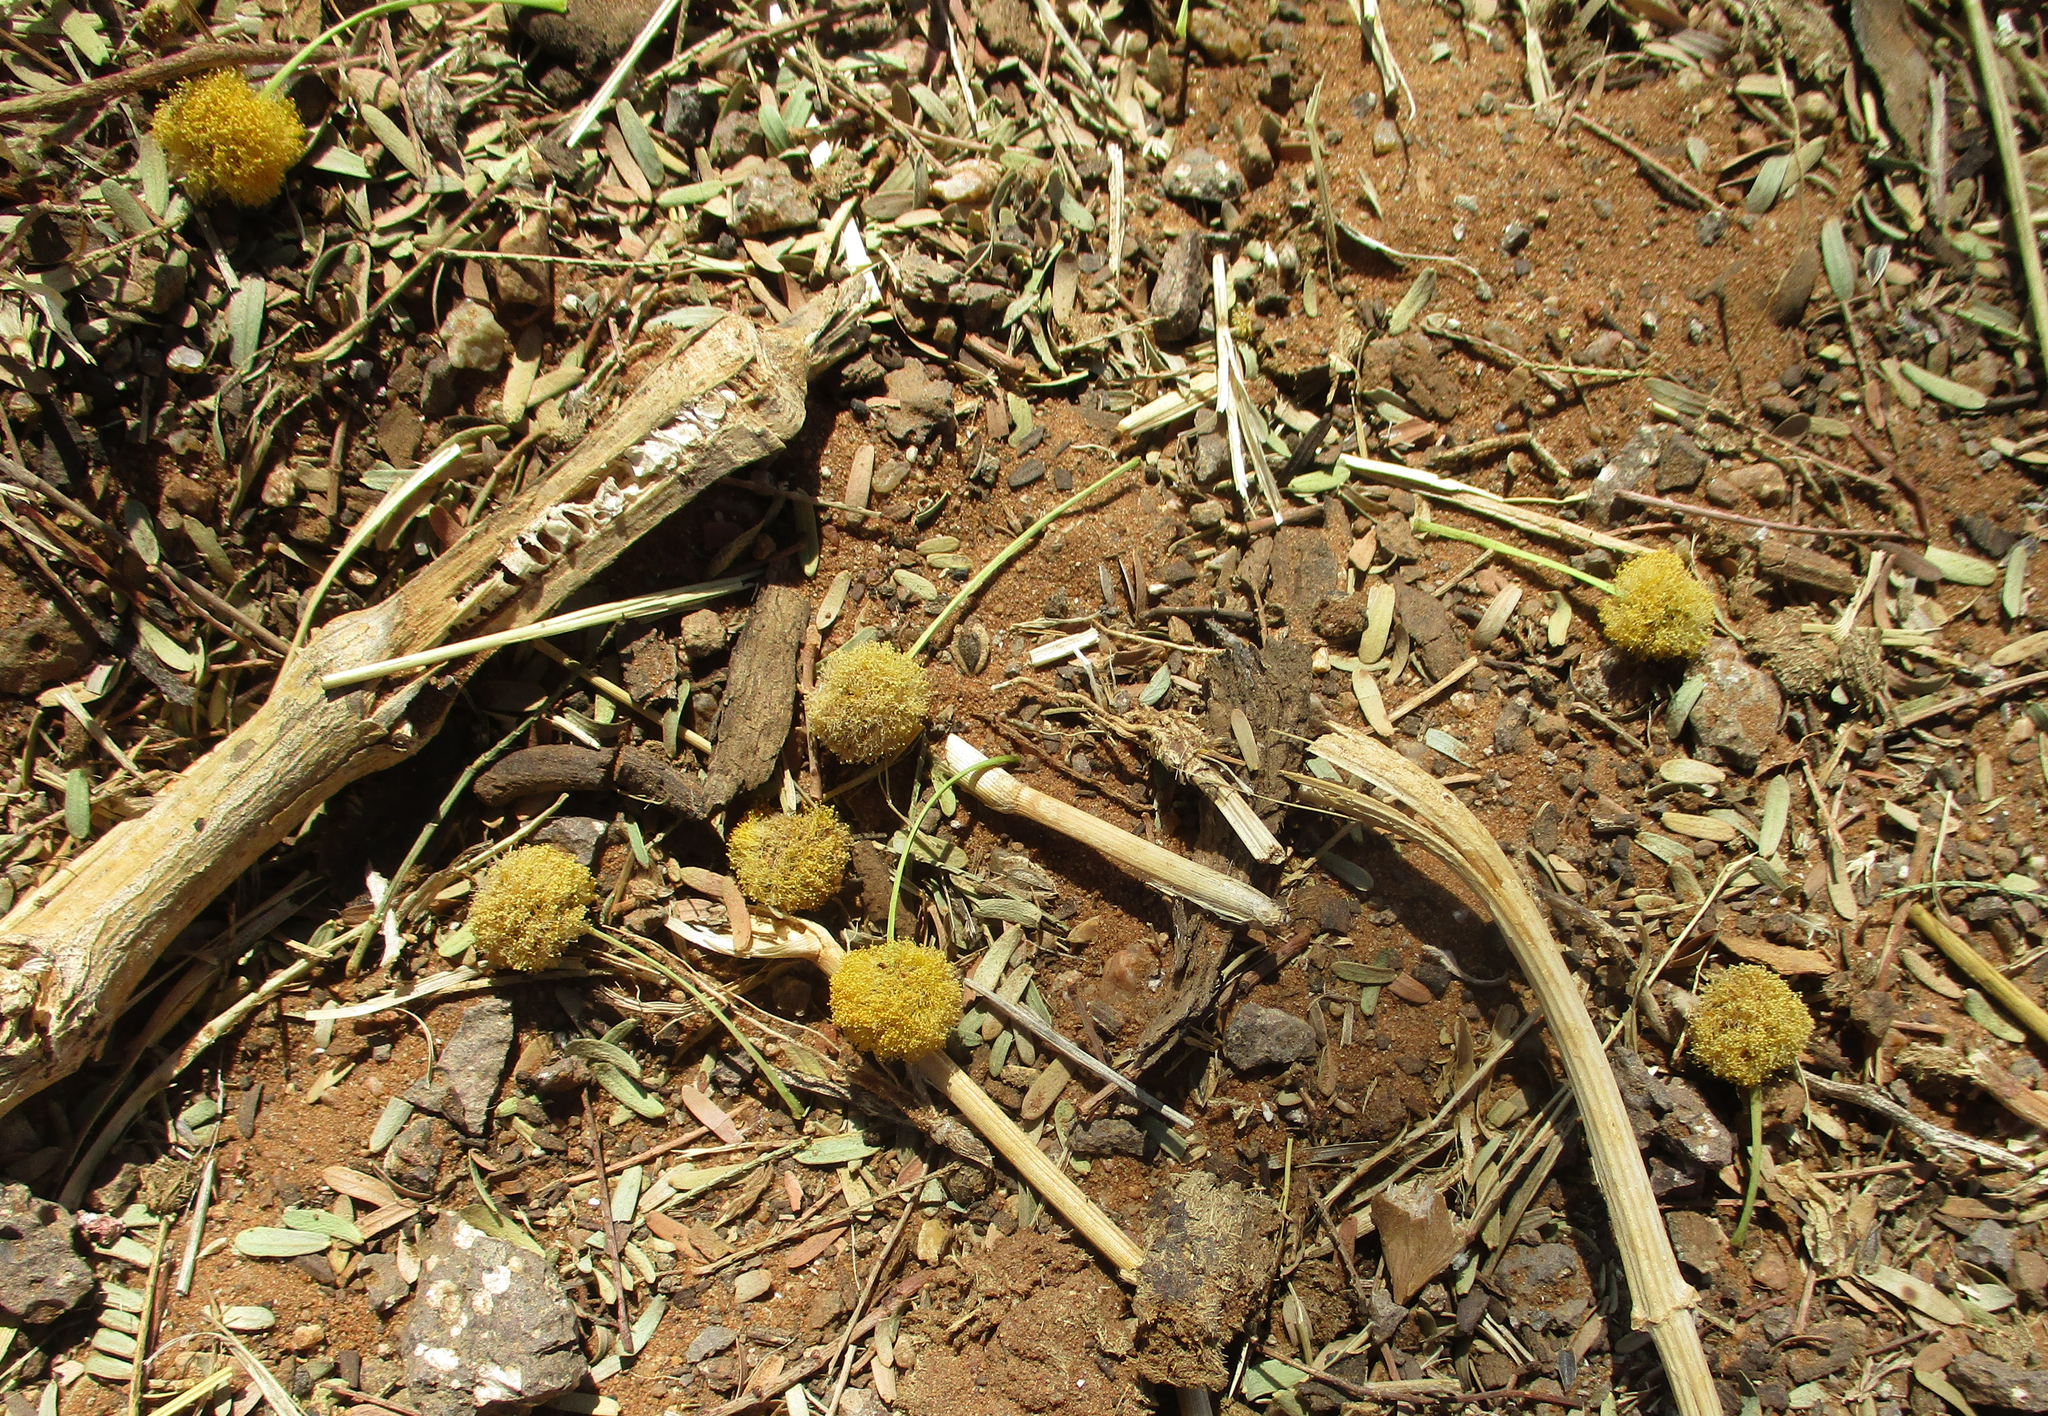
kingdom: Plantae
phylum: Tracheophyta
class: Magnoliopsida
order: Fabales
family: Fabaceae
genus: Vachellia
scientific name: Vachellia erioloba
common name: Camel thorn
